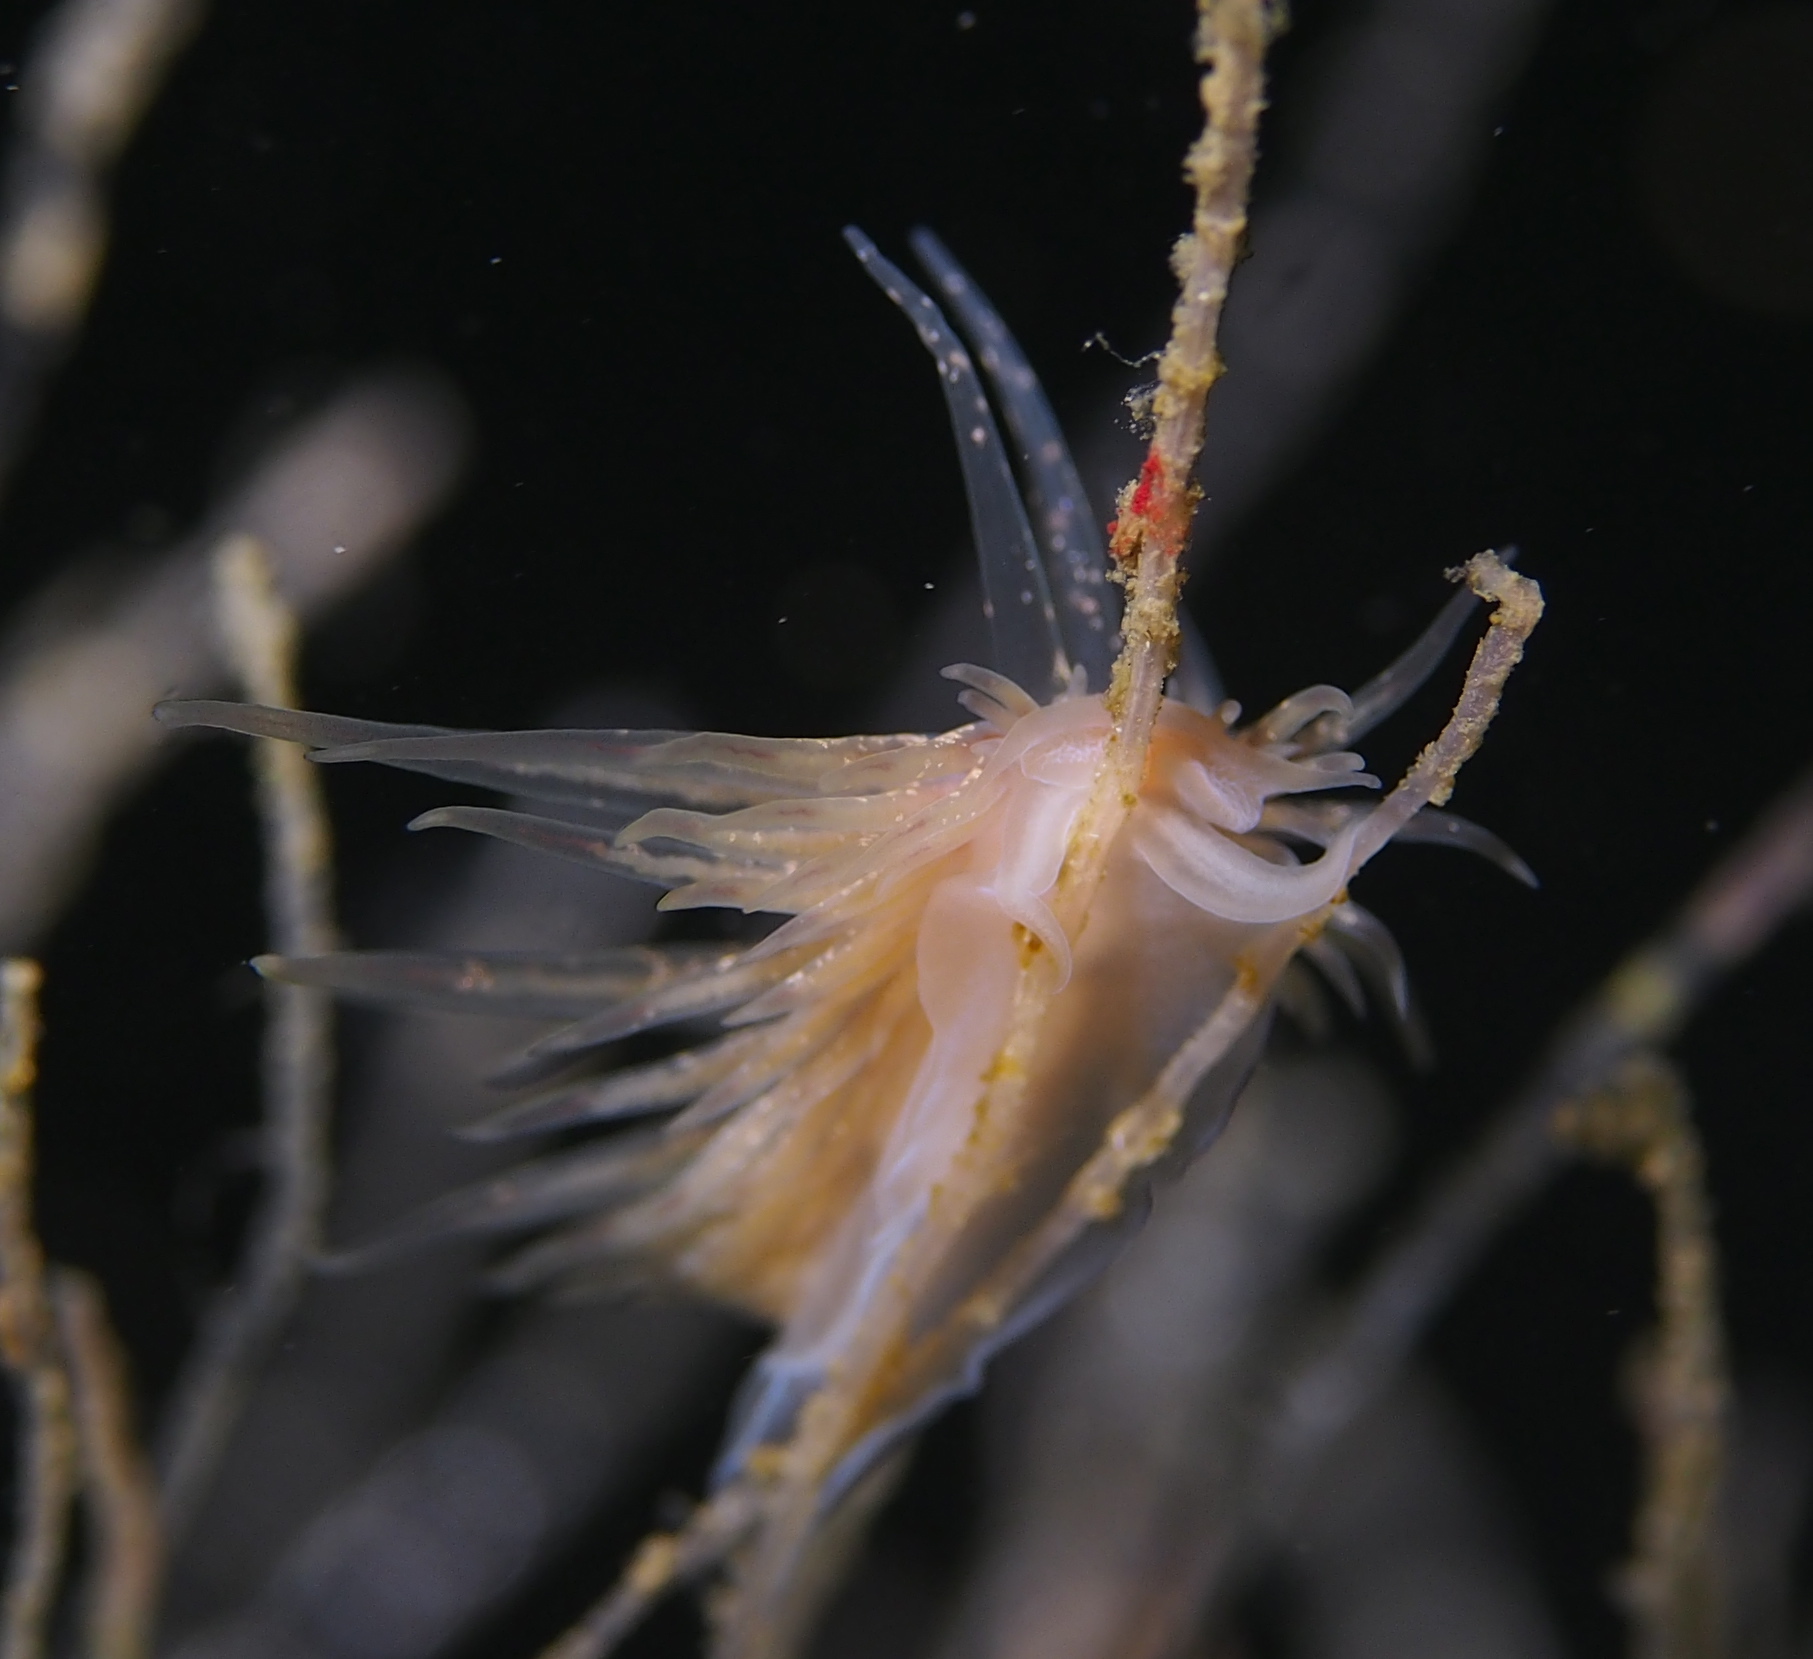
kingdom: Animalia
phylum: Mollusca
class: Gastropoda
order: Nudibranchia
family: Cumanotidae
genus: Cumanotus
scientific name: Cumanotus beaumonti
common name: Polyp aeolis
